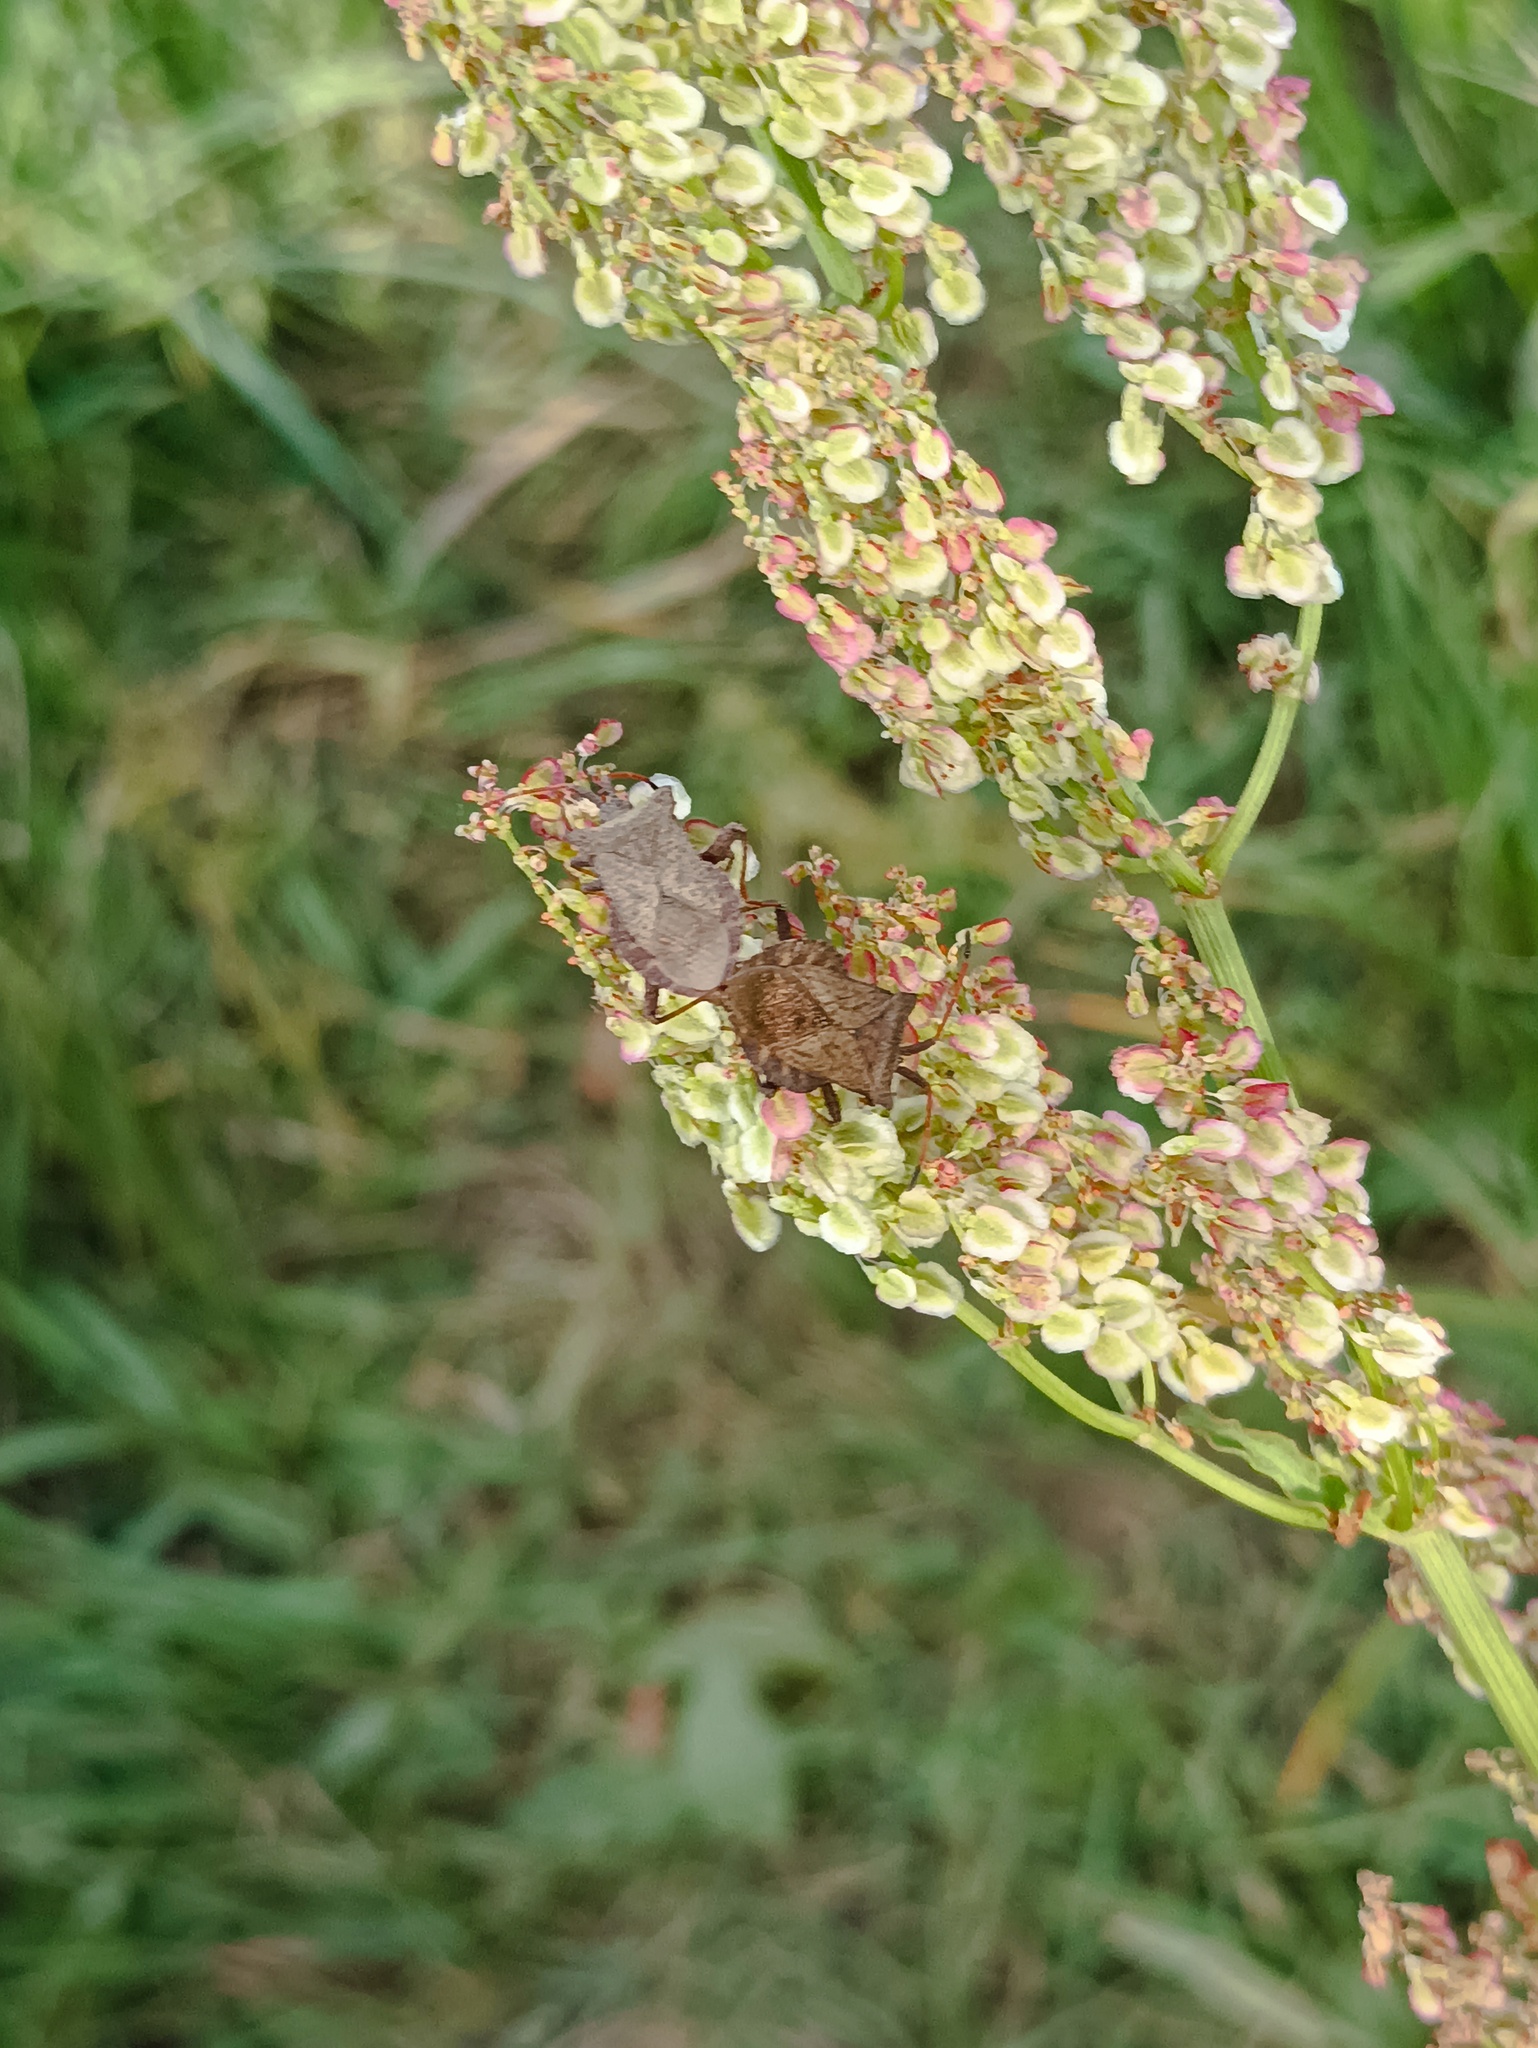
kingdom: Animalia
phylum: Arthropoda
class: Insecta
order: Hemiptera
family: Coreidae
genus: Coreus
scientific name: Coreus marginatus
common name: Dock bug
